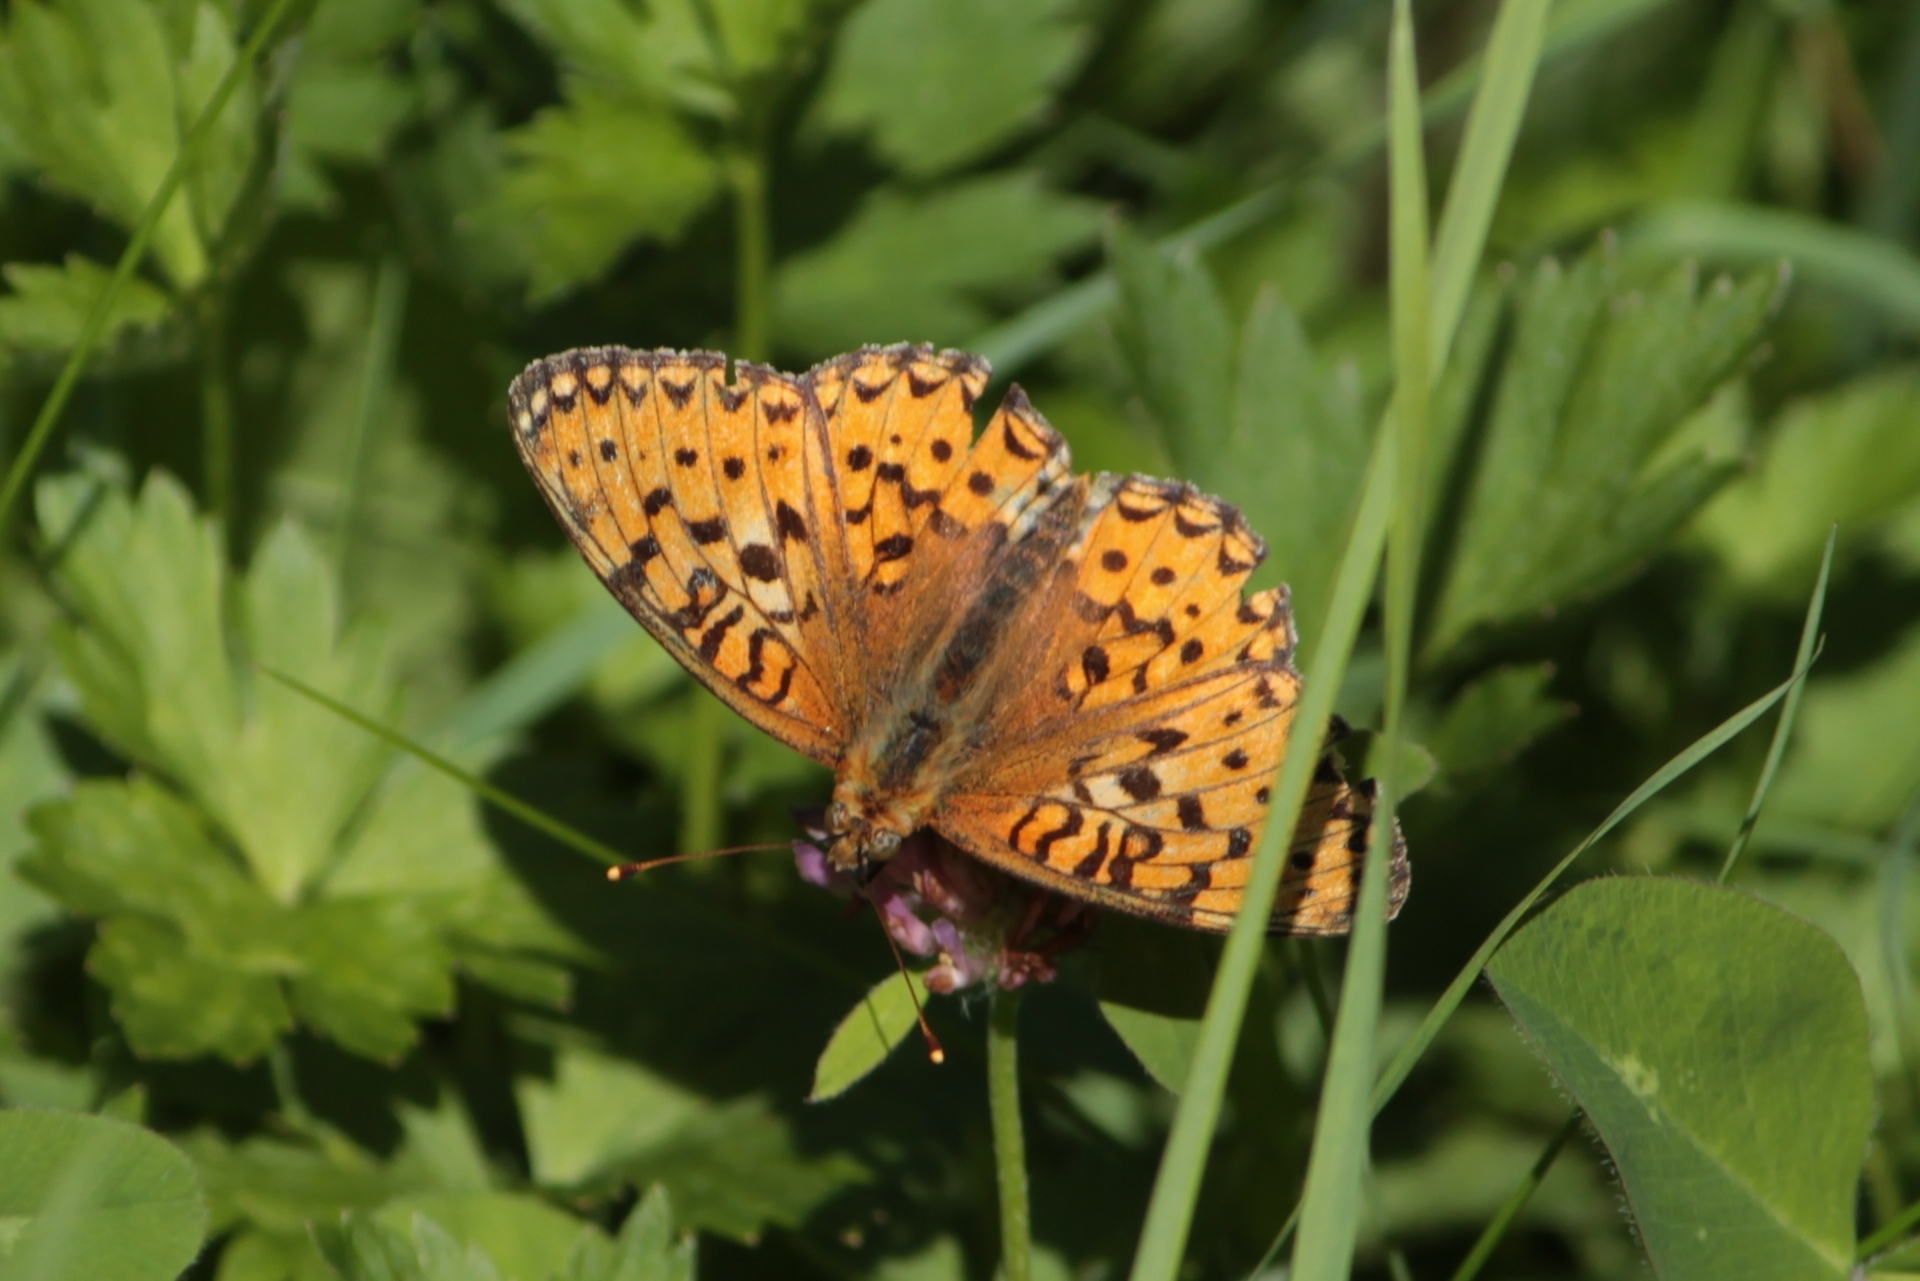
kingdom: Animalia
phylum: Arthropoda
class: Insecta
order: Lepidoptera
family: Nymphalidae
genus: Speyeria
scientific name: Speyeria aglaja
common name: Dark green fritillary
